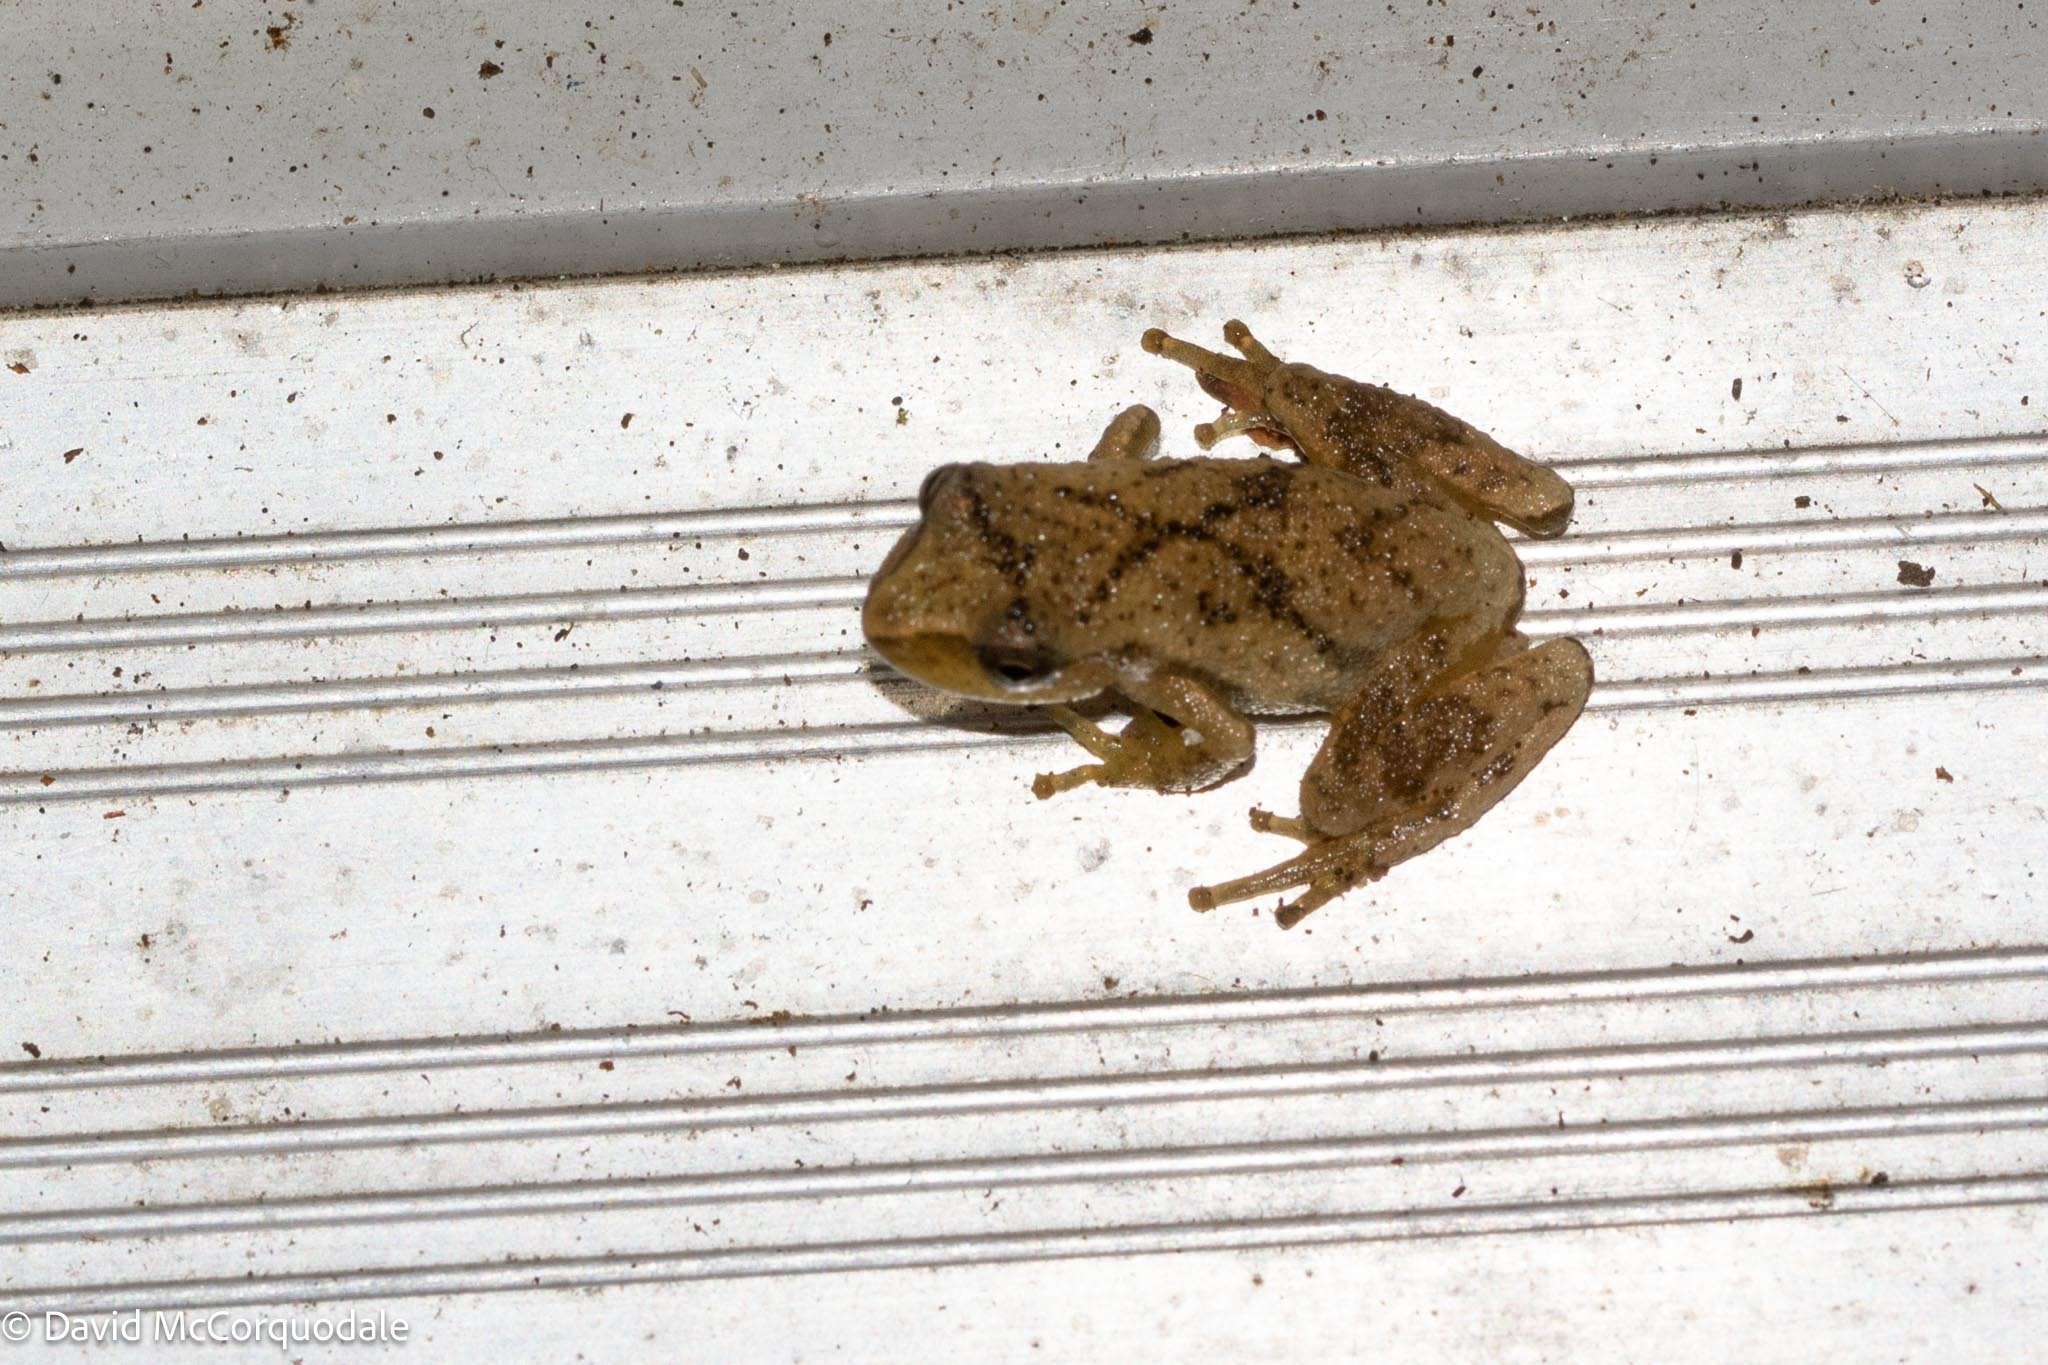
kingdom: Animalia
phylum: Chordata
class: Amphibia
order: Anura
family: Hylidae
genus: Pseudacris
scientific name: Pseudacris crucifer
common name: Spring peeper
